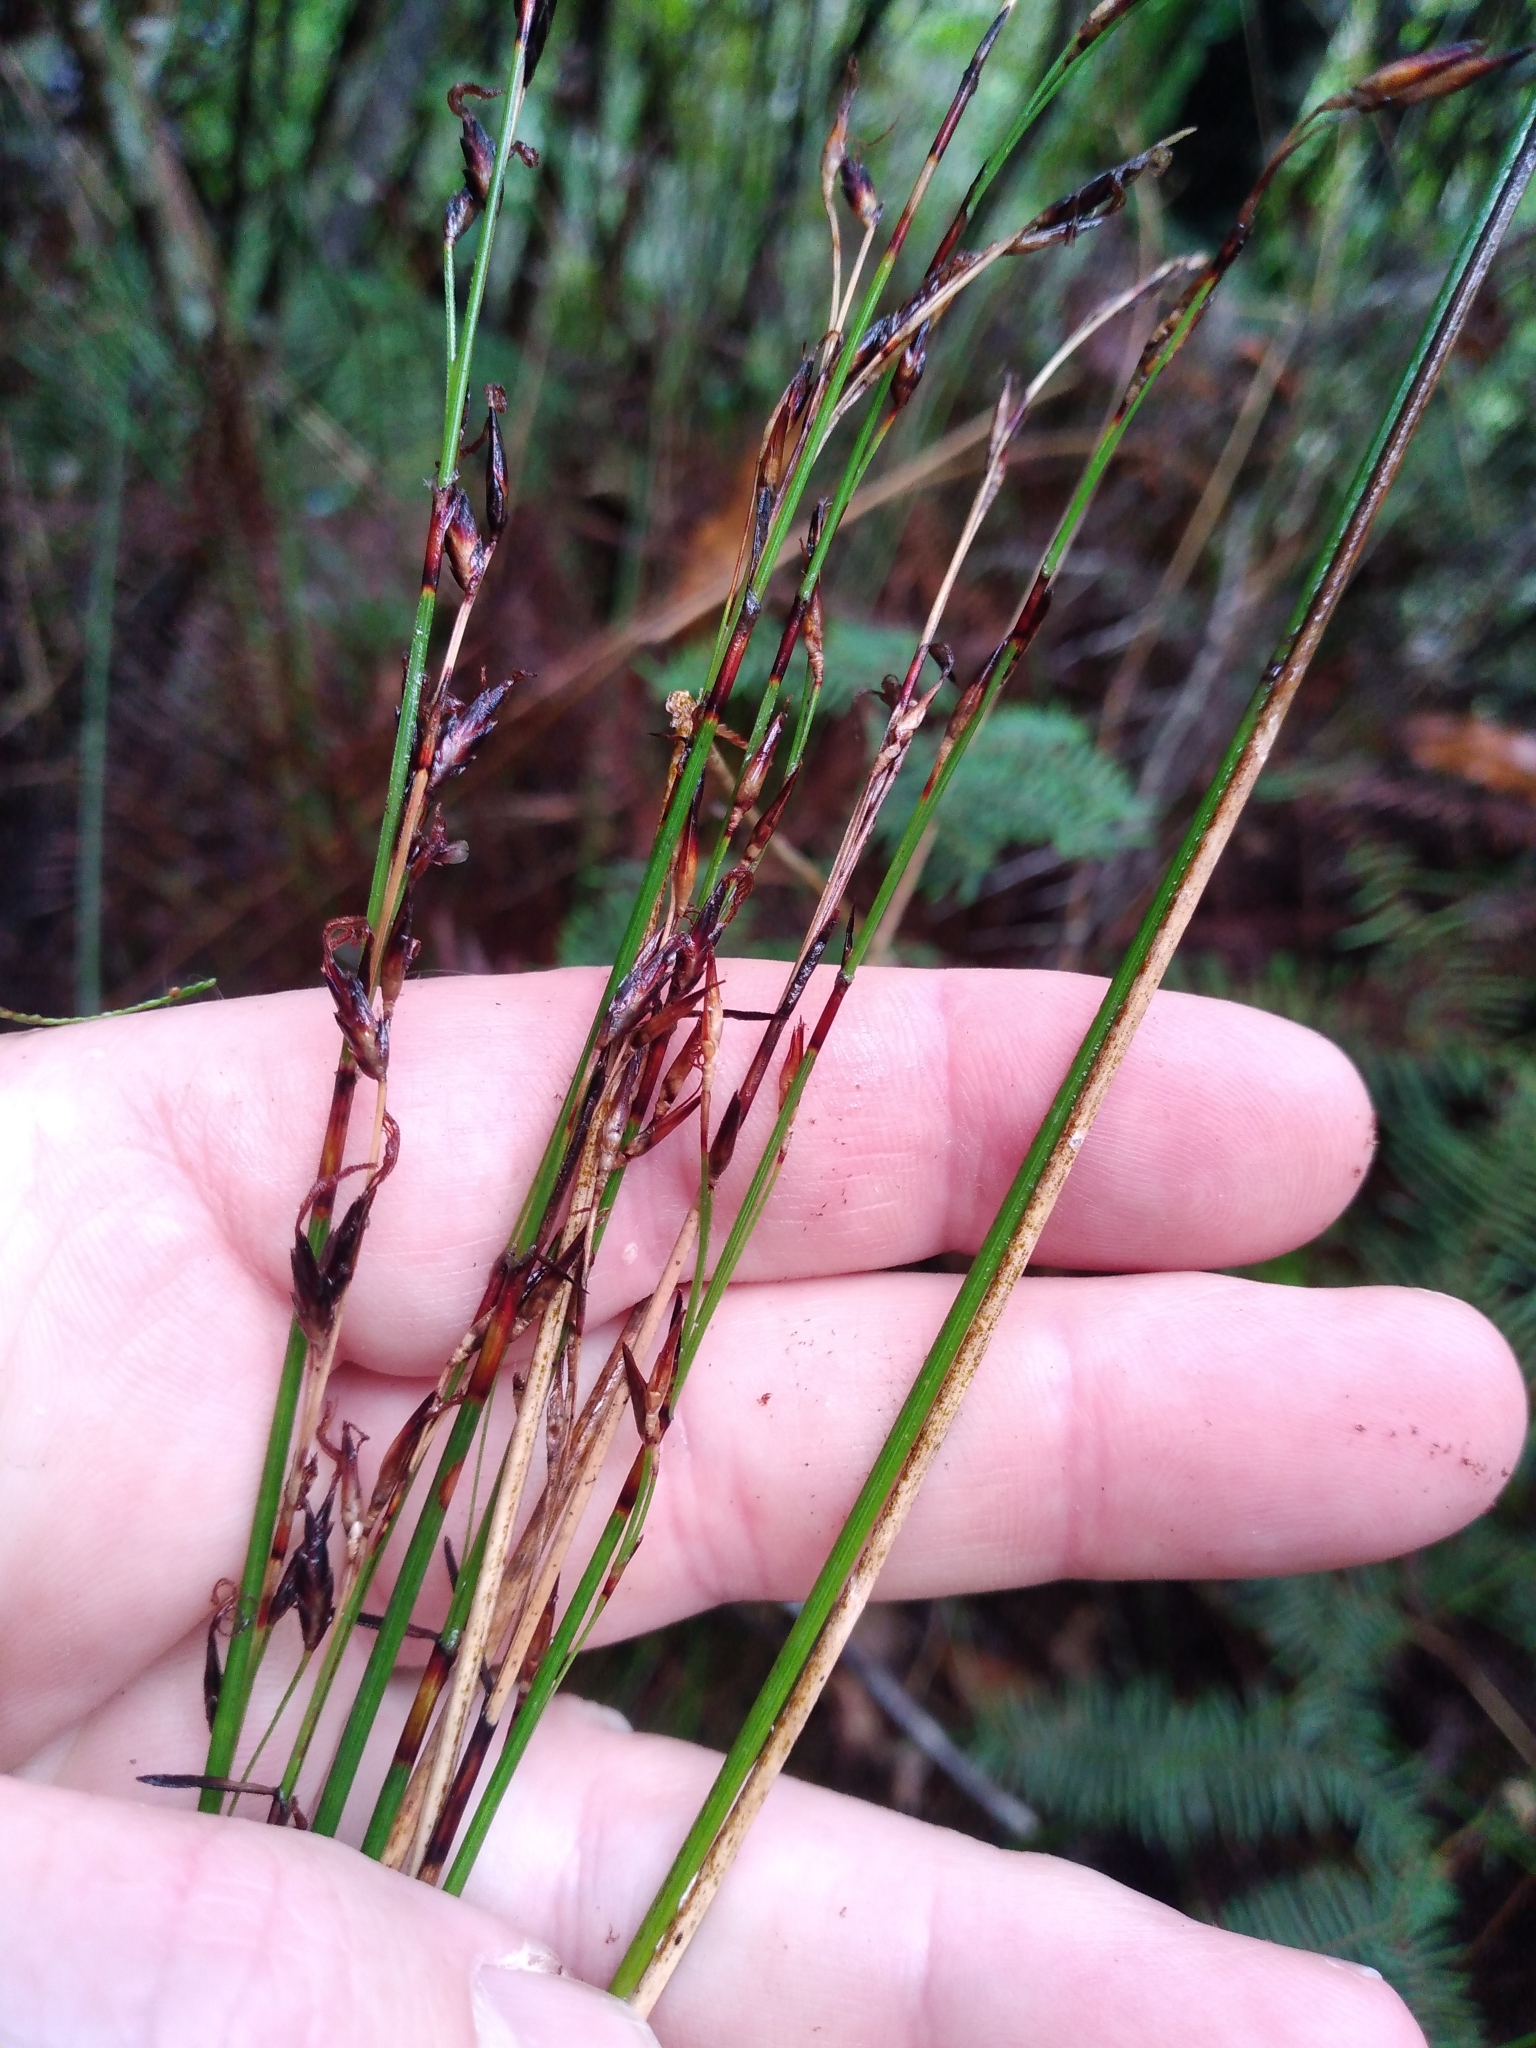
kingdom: Plantae
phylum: Tracheophyta
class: Liliopsida
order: Poales
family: Cyperaceae
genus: Schoenus
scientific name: Schoenus tendo
